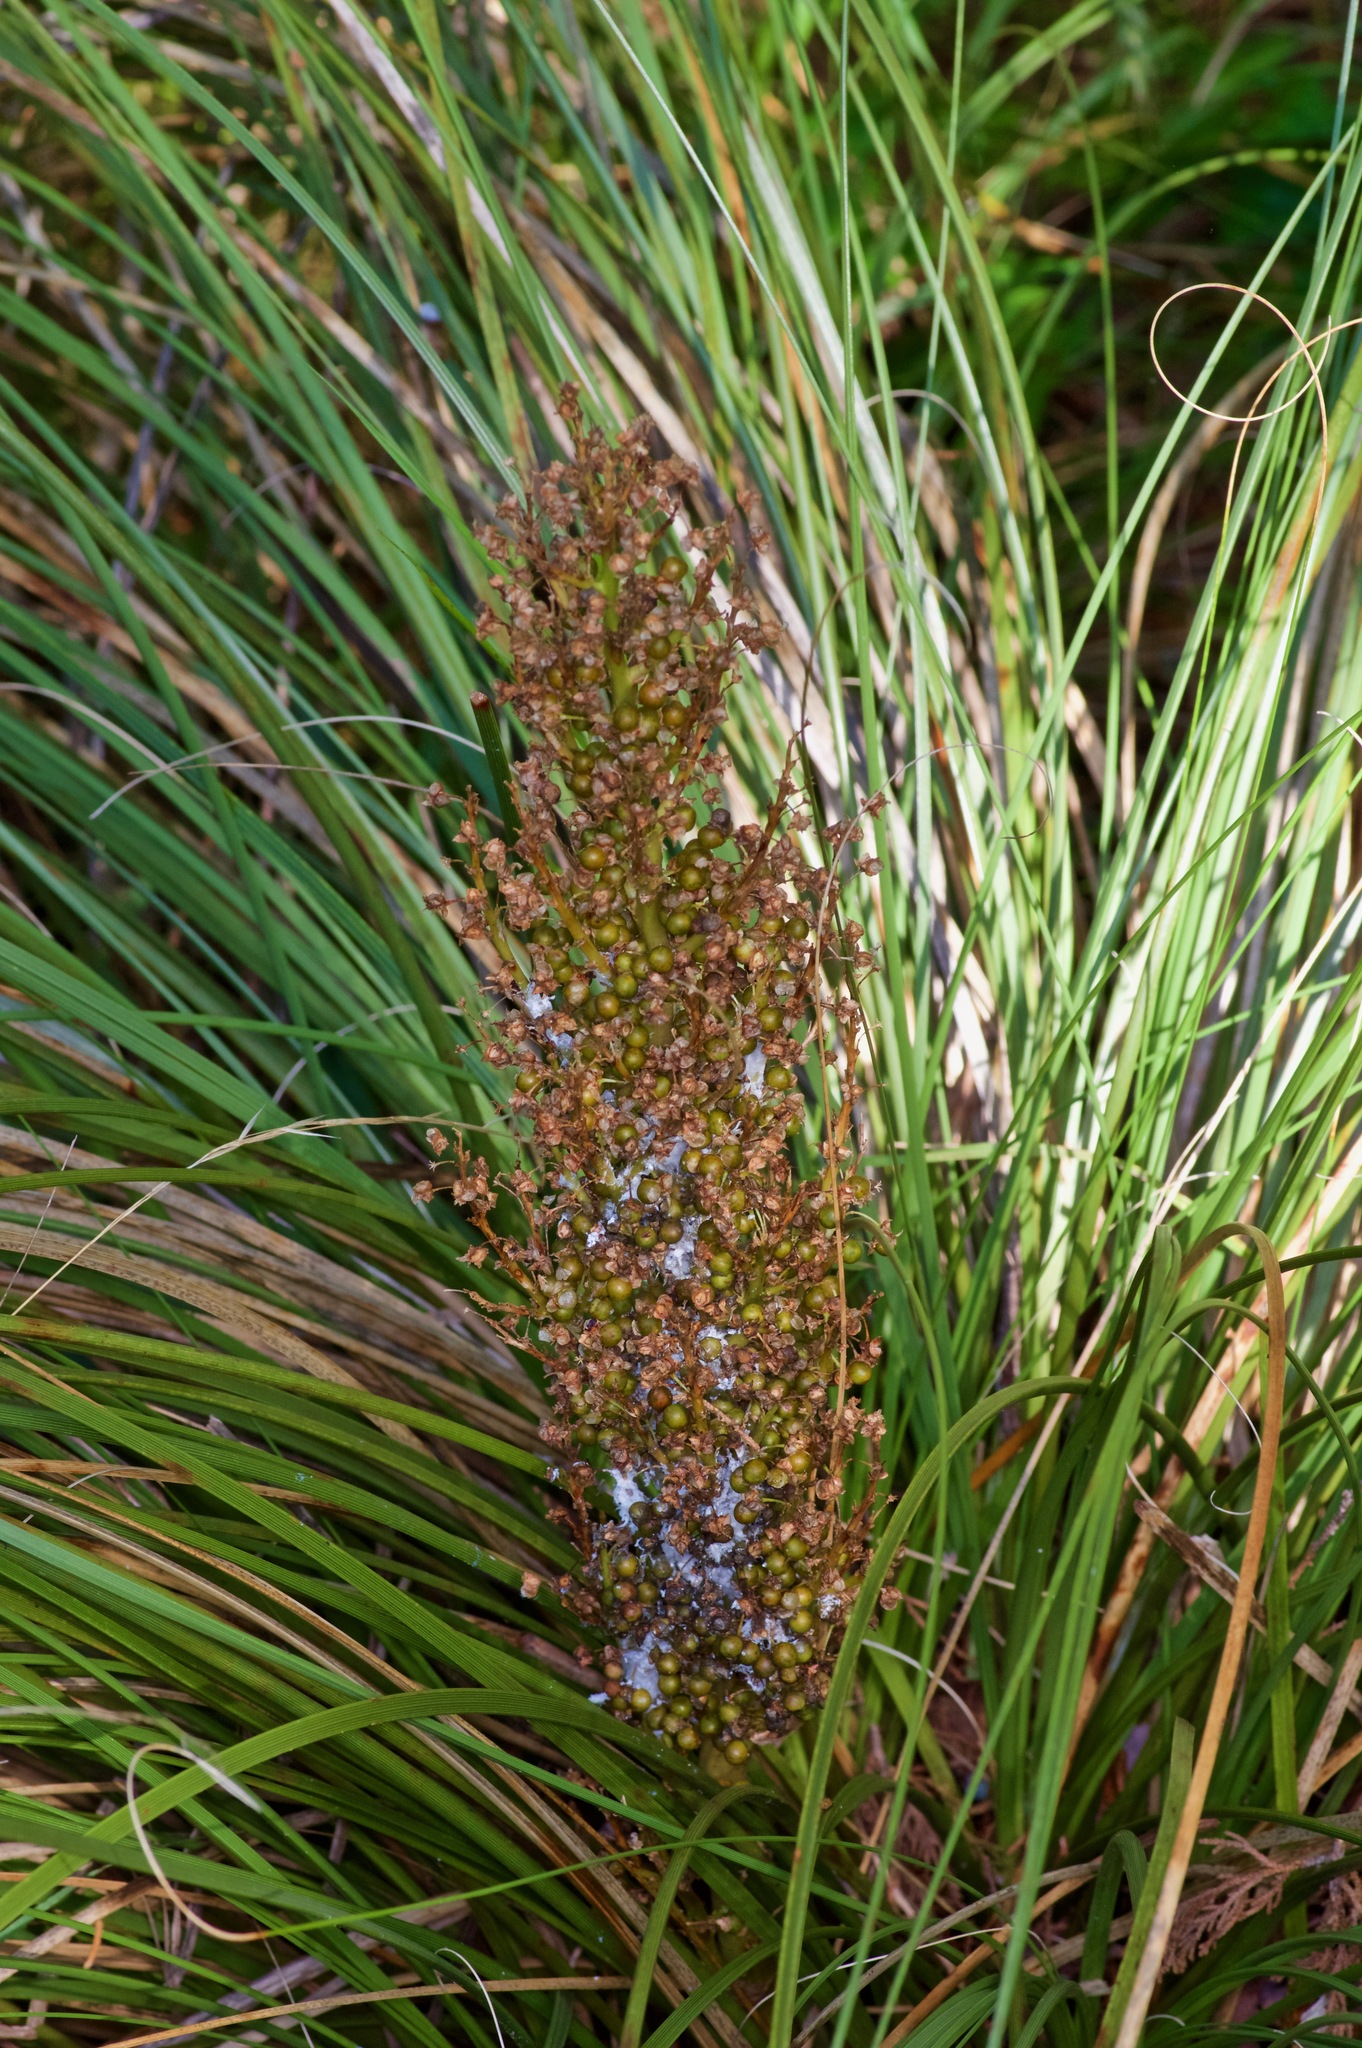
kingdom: Plantae
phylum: Tracheophyta
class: Liliopsida
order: Asparagales
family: Asparagaceae
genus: Nolina
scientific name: Nolina texana
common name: Texas sacahuiste
